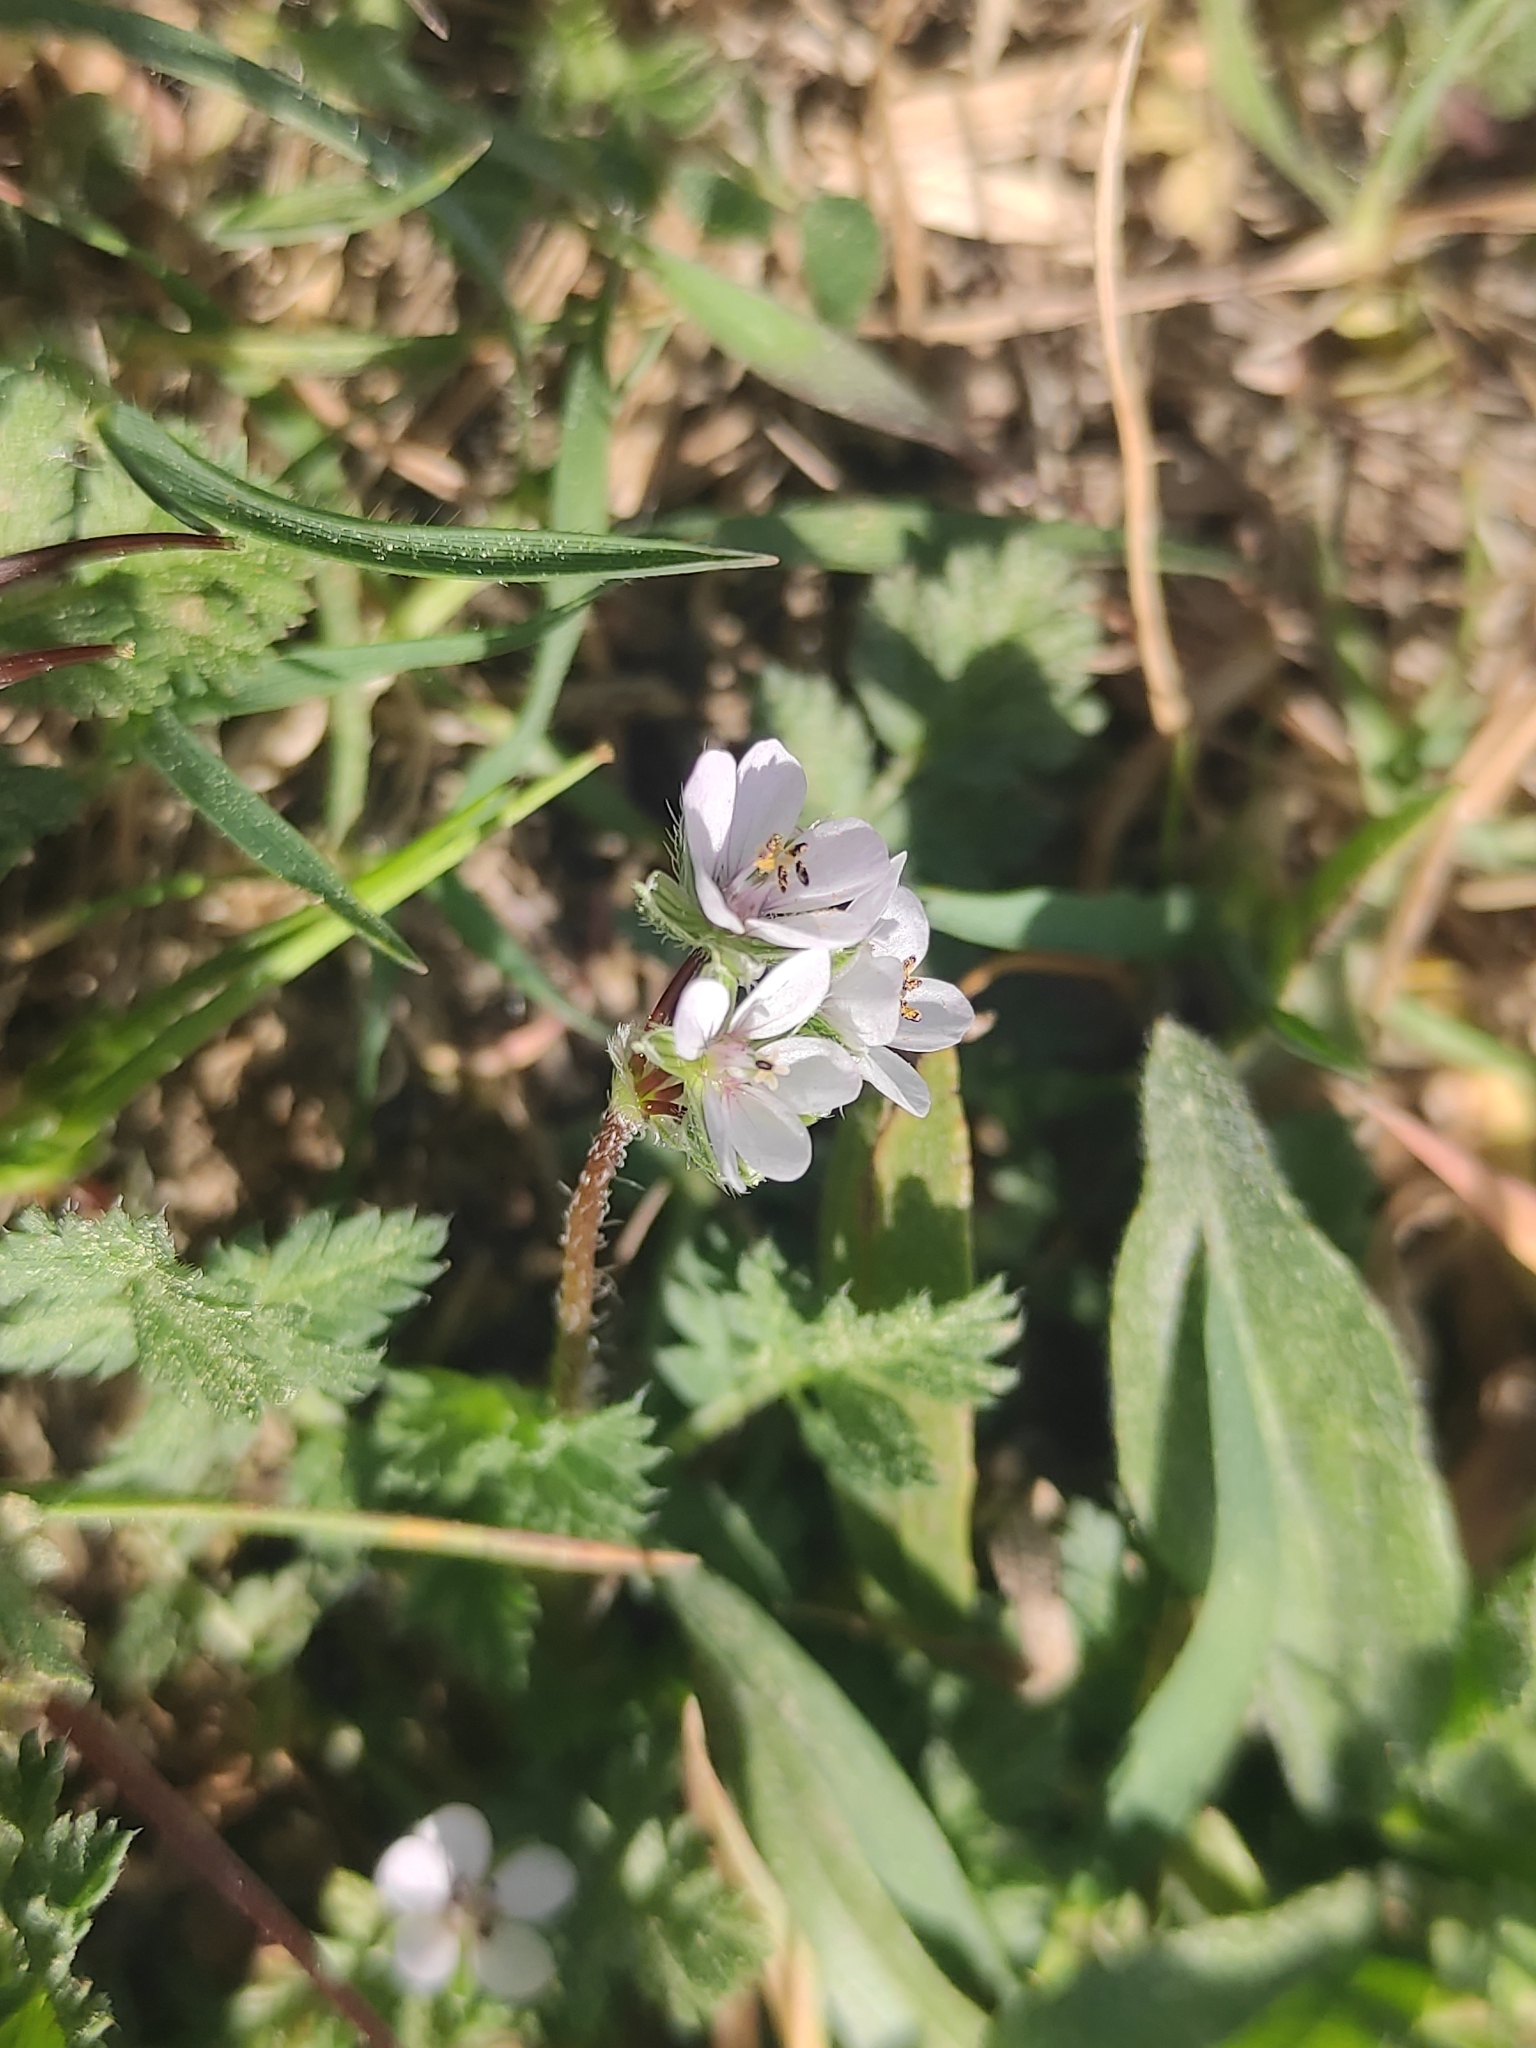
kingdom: Plantae
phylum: Tracheophyta
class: Magnoliopsida
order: Geraniales
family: Geraniaceae
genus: Erodium
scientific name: Erodium cicutarium
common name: Common stork's-bill
